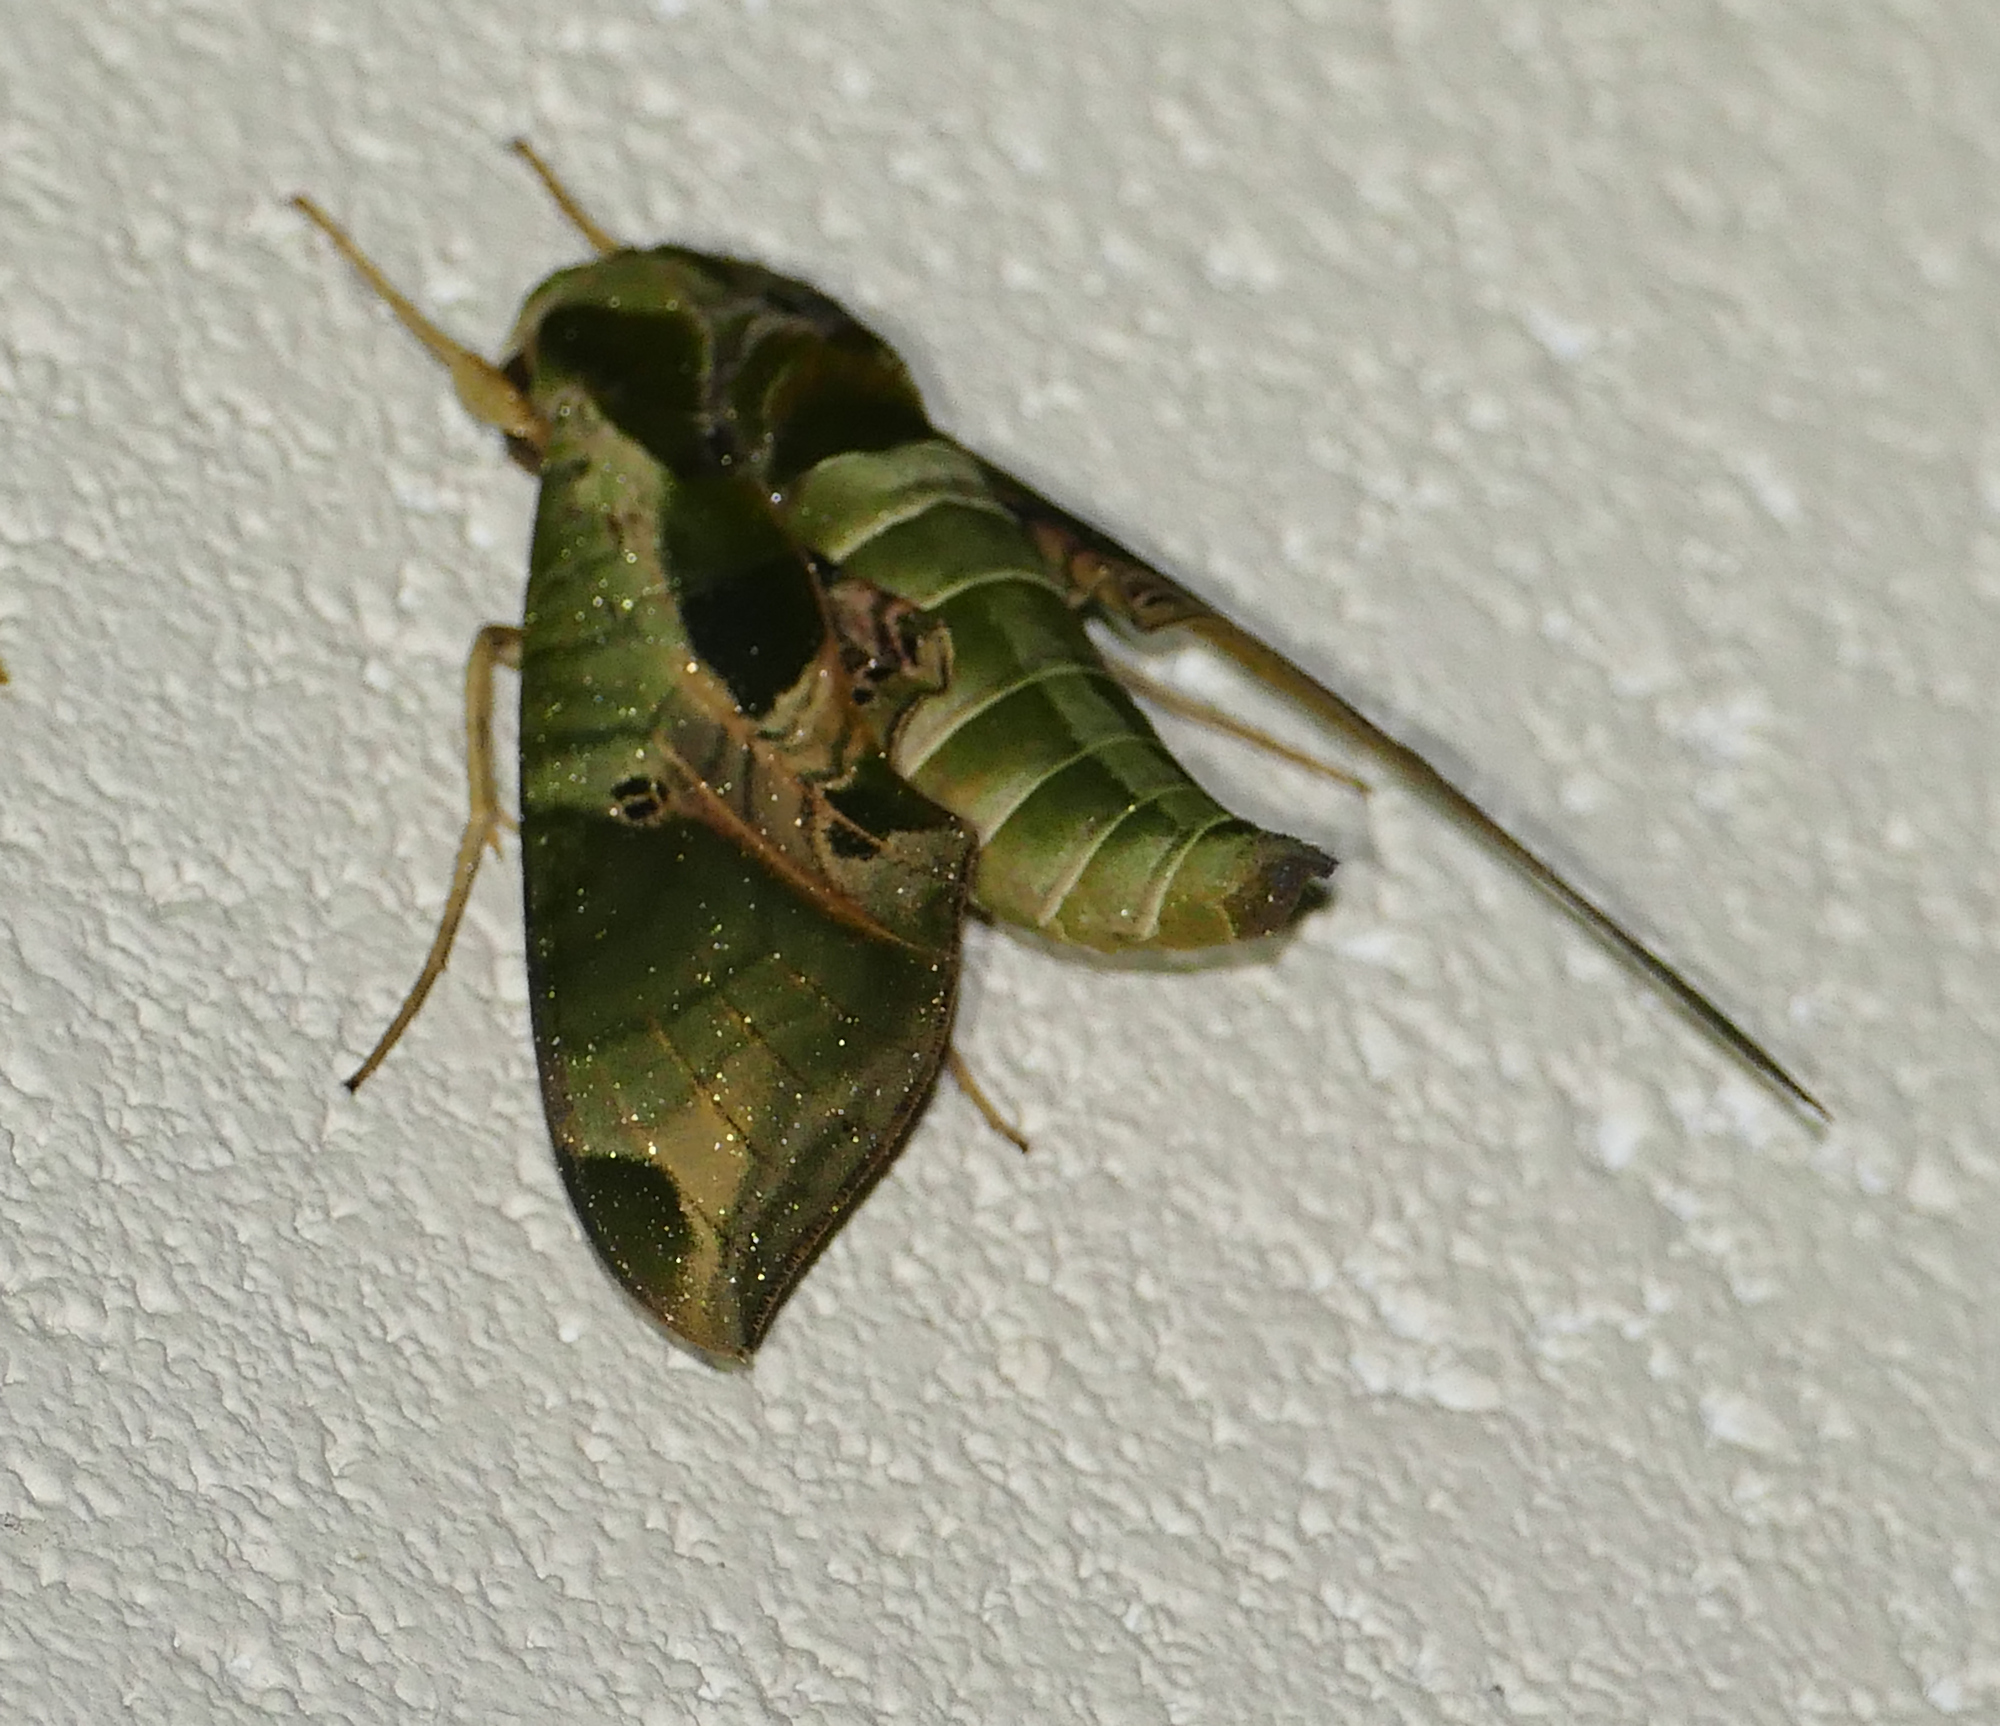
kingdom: Animalia
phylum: Arthropoda
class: Insecta
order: Lepidoptera
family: Sphingidae
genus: Eumorpha
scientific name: Eumorpha pandorus
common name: Pandora sphinx
